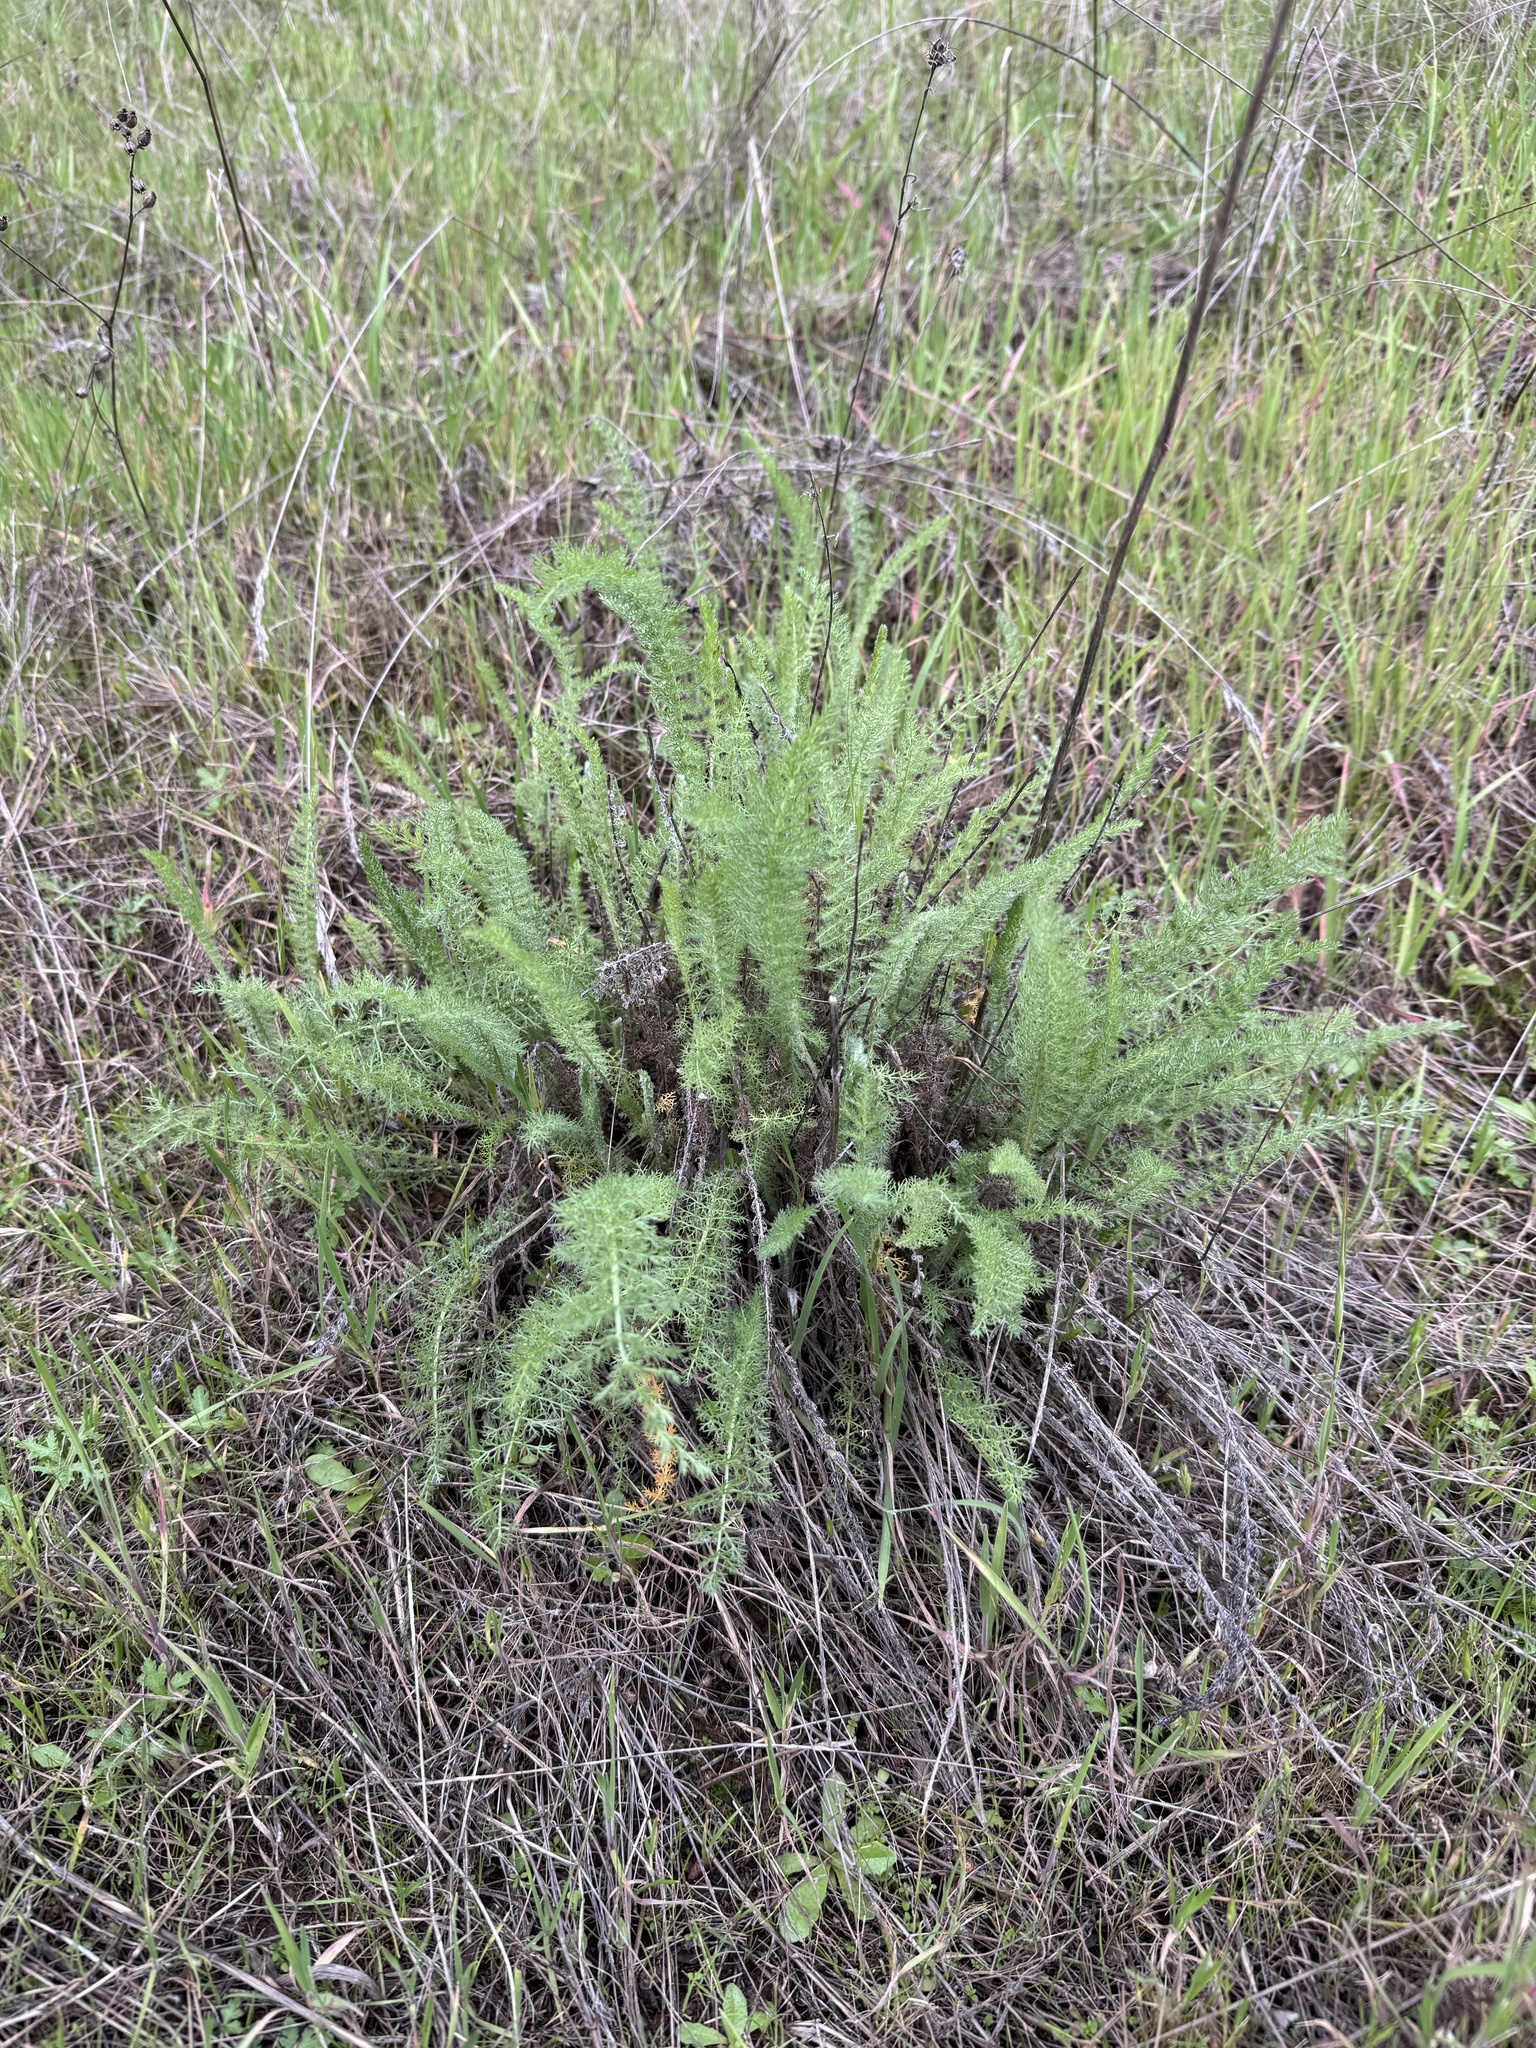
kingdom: Plantae
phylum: Tracheophyta
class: Magnoliopsida
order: Asterales
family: Asteraceae
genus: Achillea
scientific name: Achillea millefolium
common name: Yarrow
